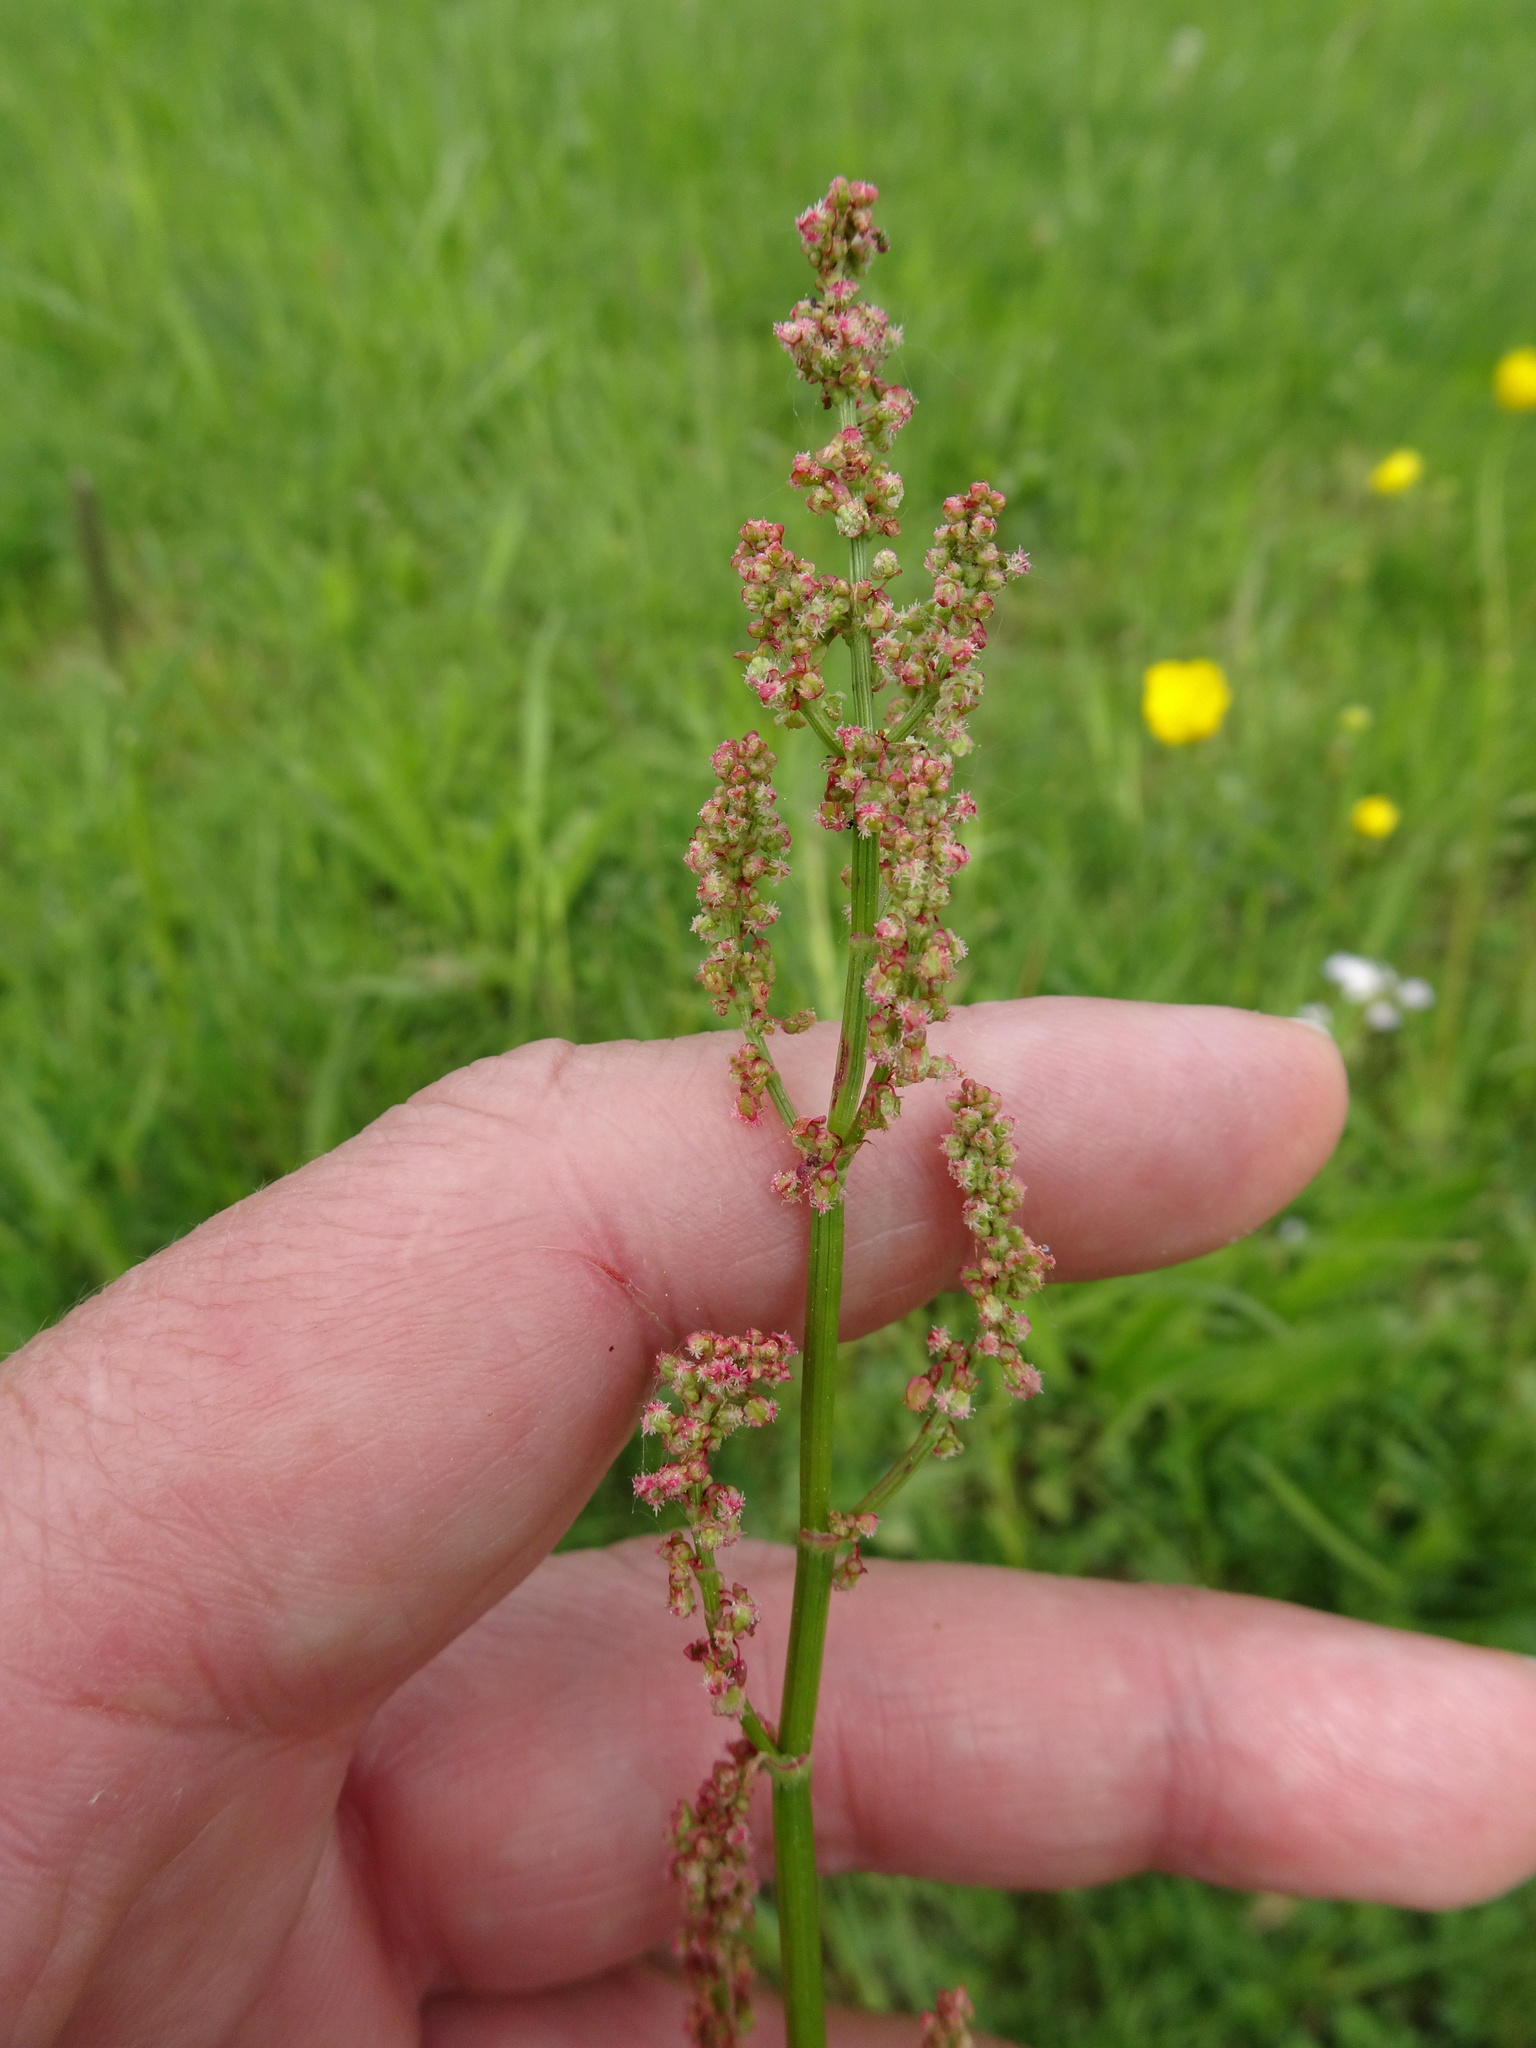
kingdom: Plantae
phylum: Tracheophyta
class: Magnoliopsida
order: Caryophyllales
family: Polygonaceae
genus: Rumex
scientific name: Rumex acetosa
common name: Garden sorrel
